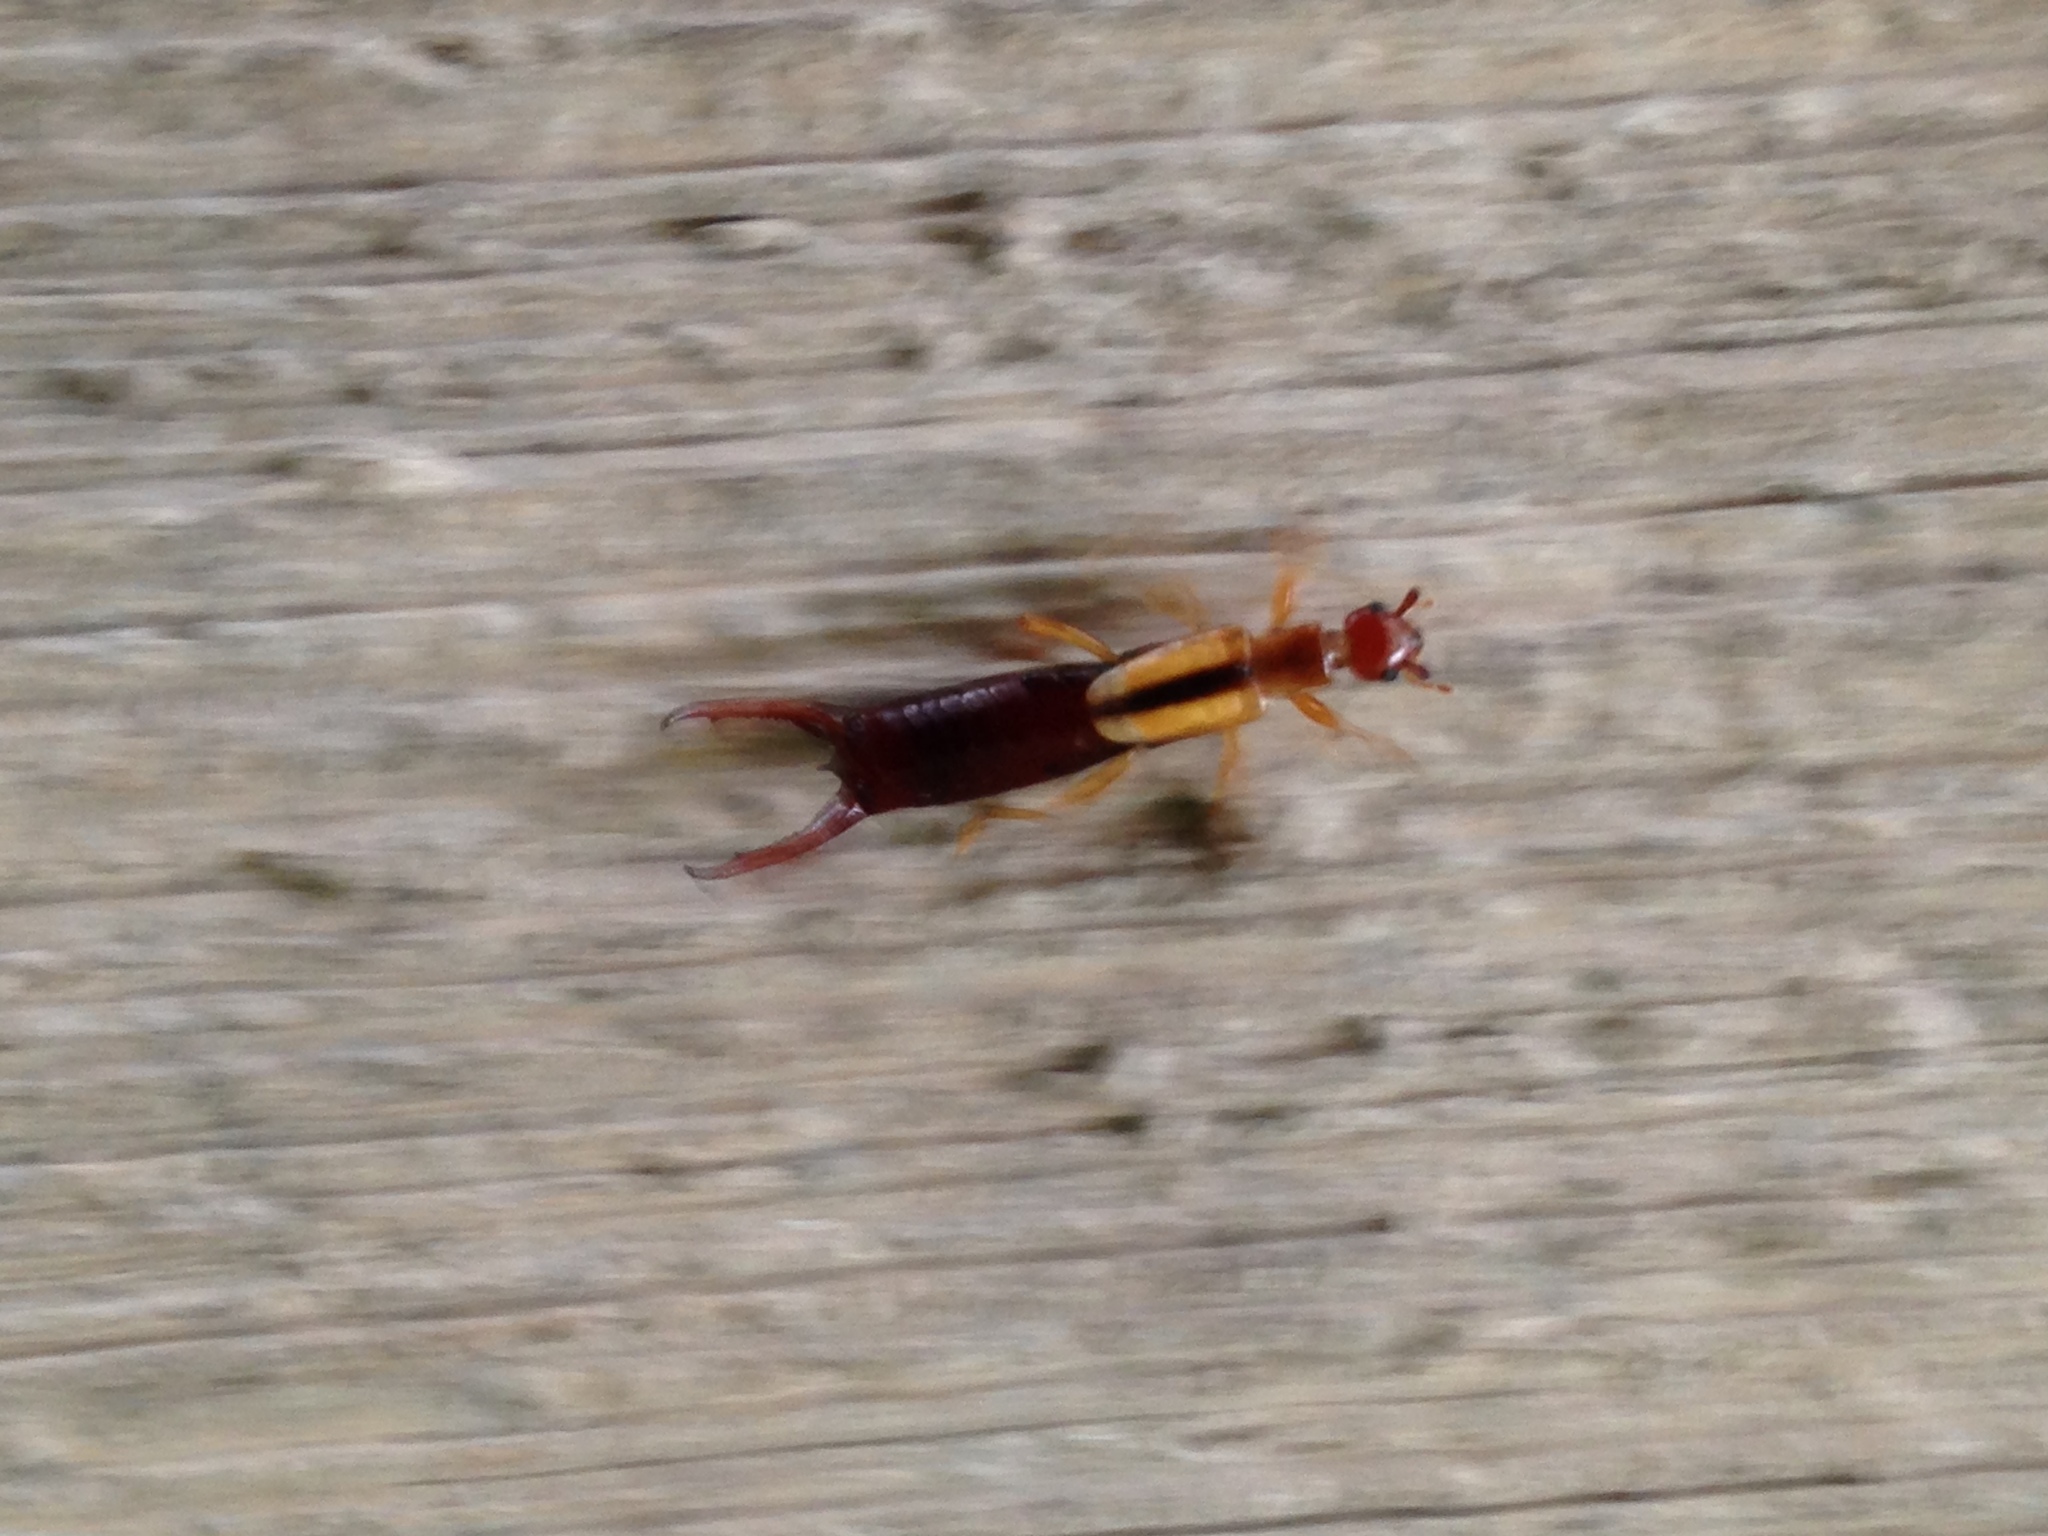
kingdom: Animalia
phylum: Arthropoda
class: Insecta
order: Dermaptera
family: Forficulidae
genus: Doru
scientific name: Doru taeniatum
